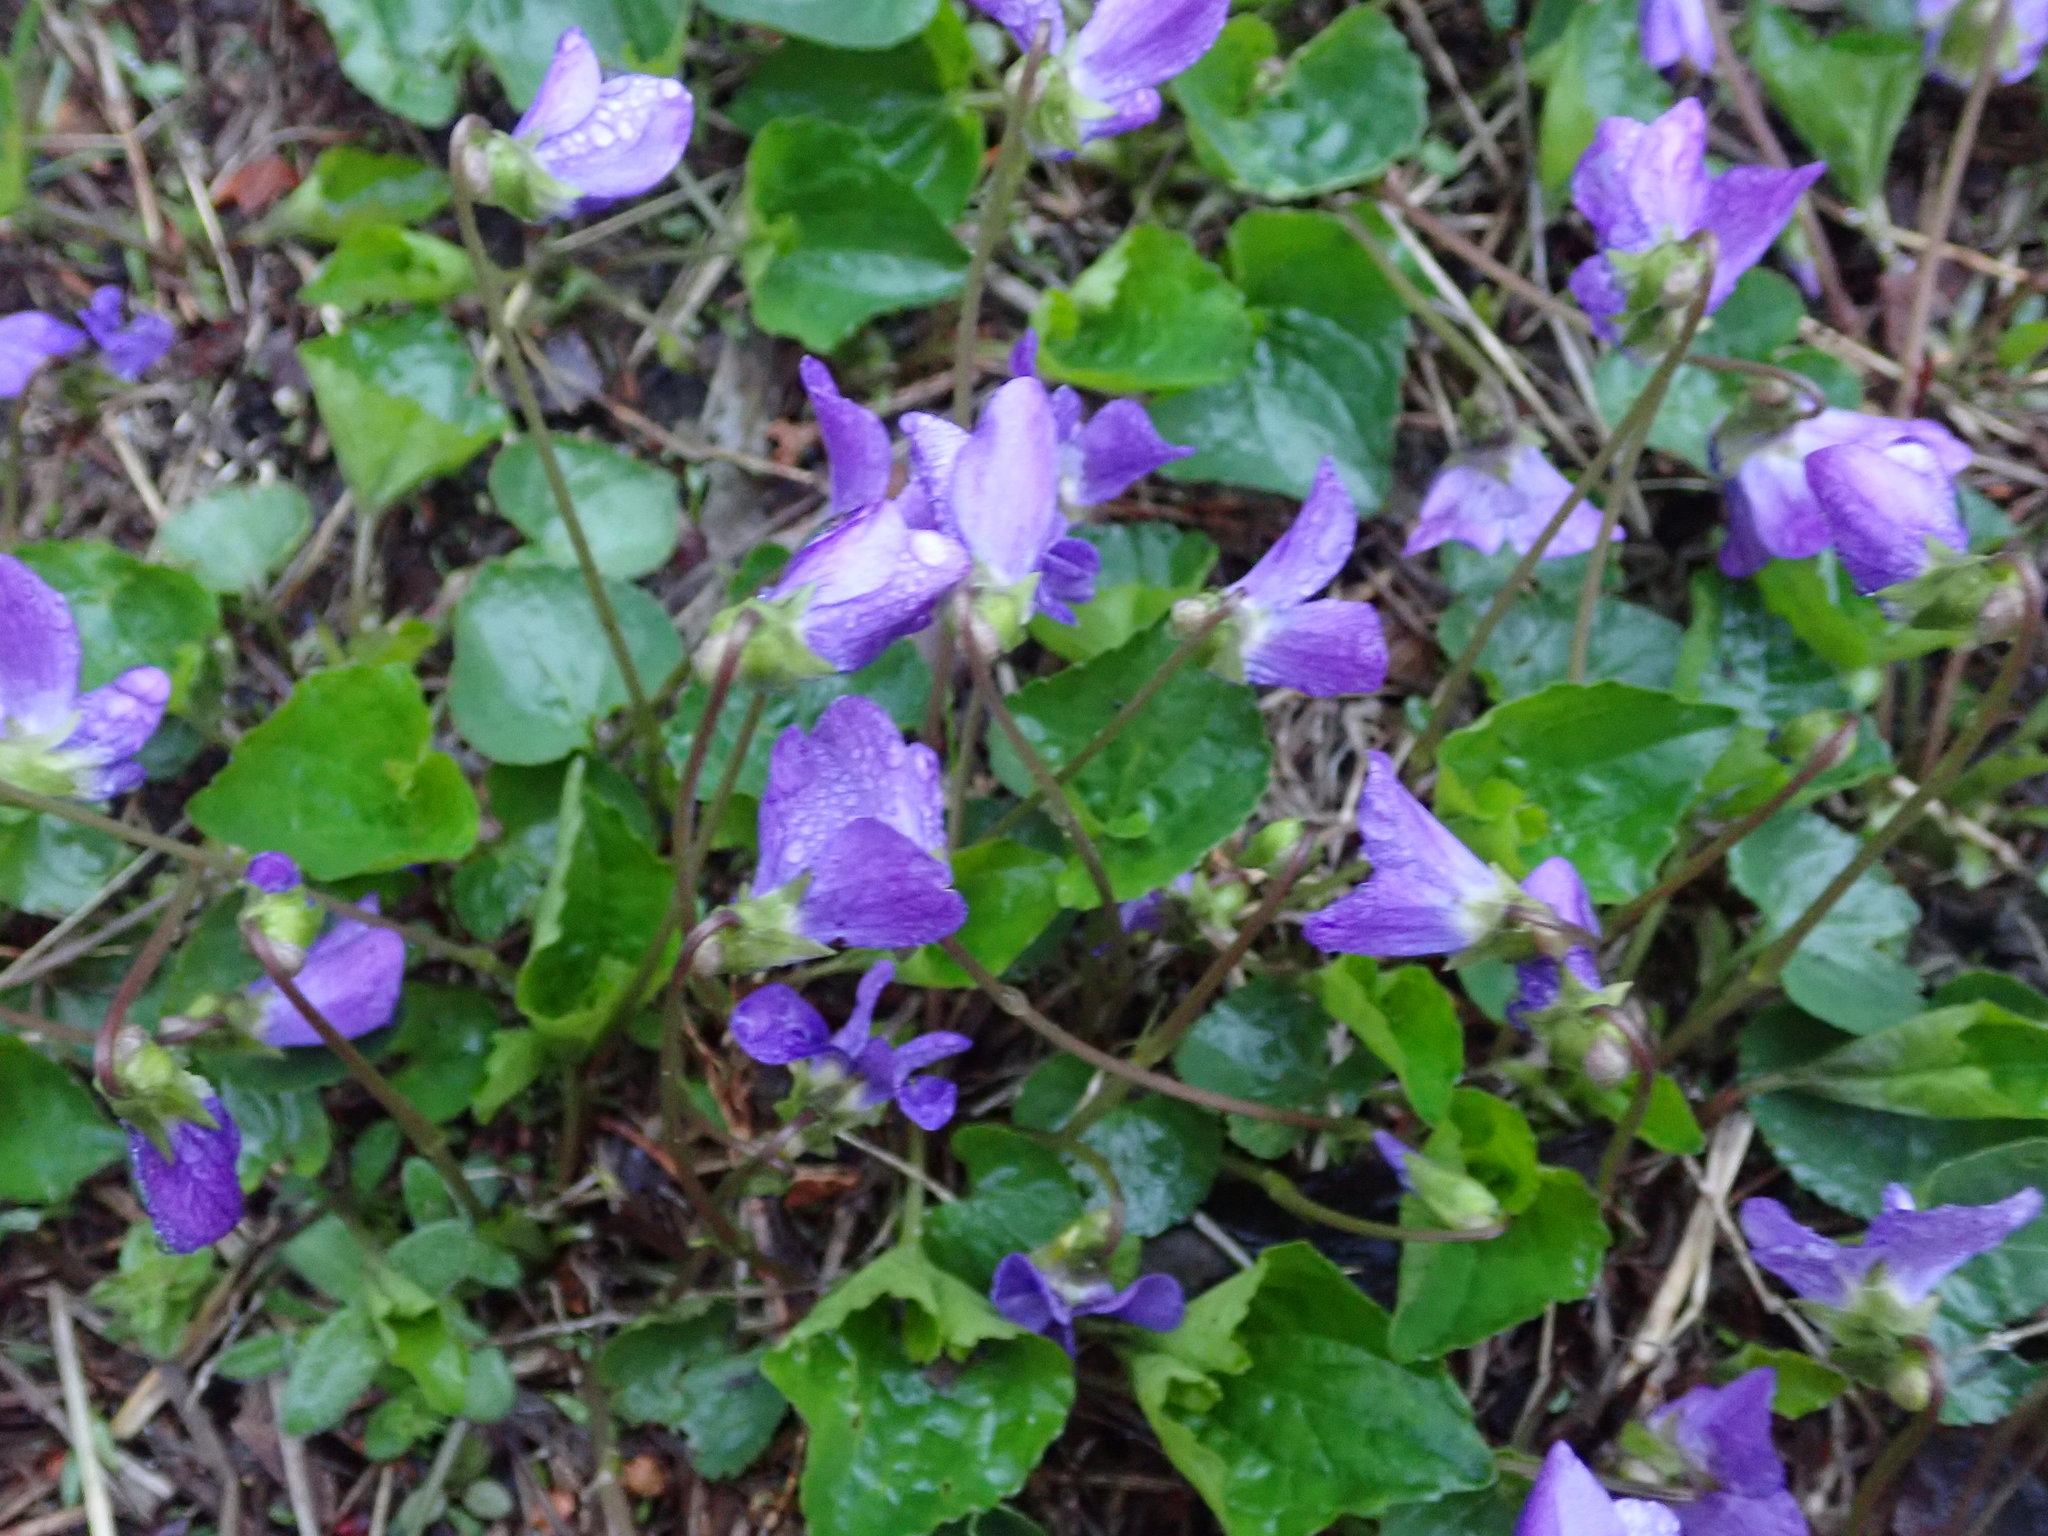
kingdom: Plantae
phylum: Tracheophyta
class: Magnoliopsida
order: Malpighiales
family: Violaceae
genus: Viola
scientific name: Viola sororia
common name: Dooryard violet
